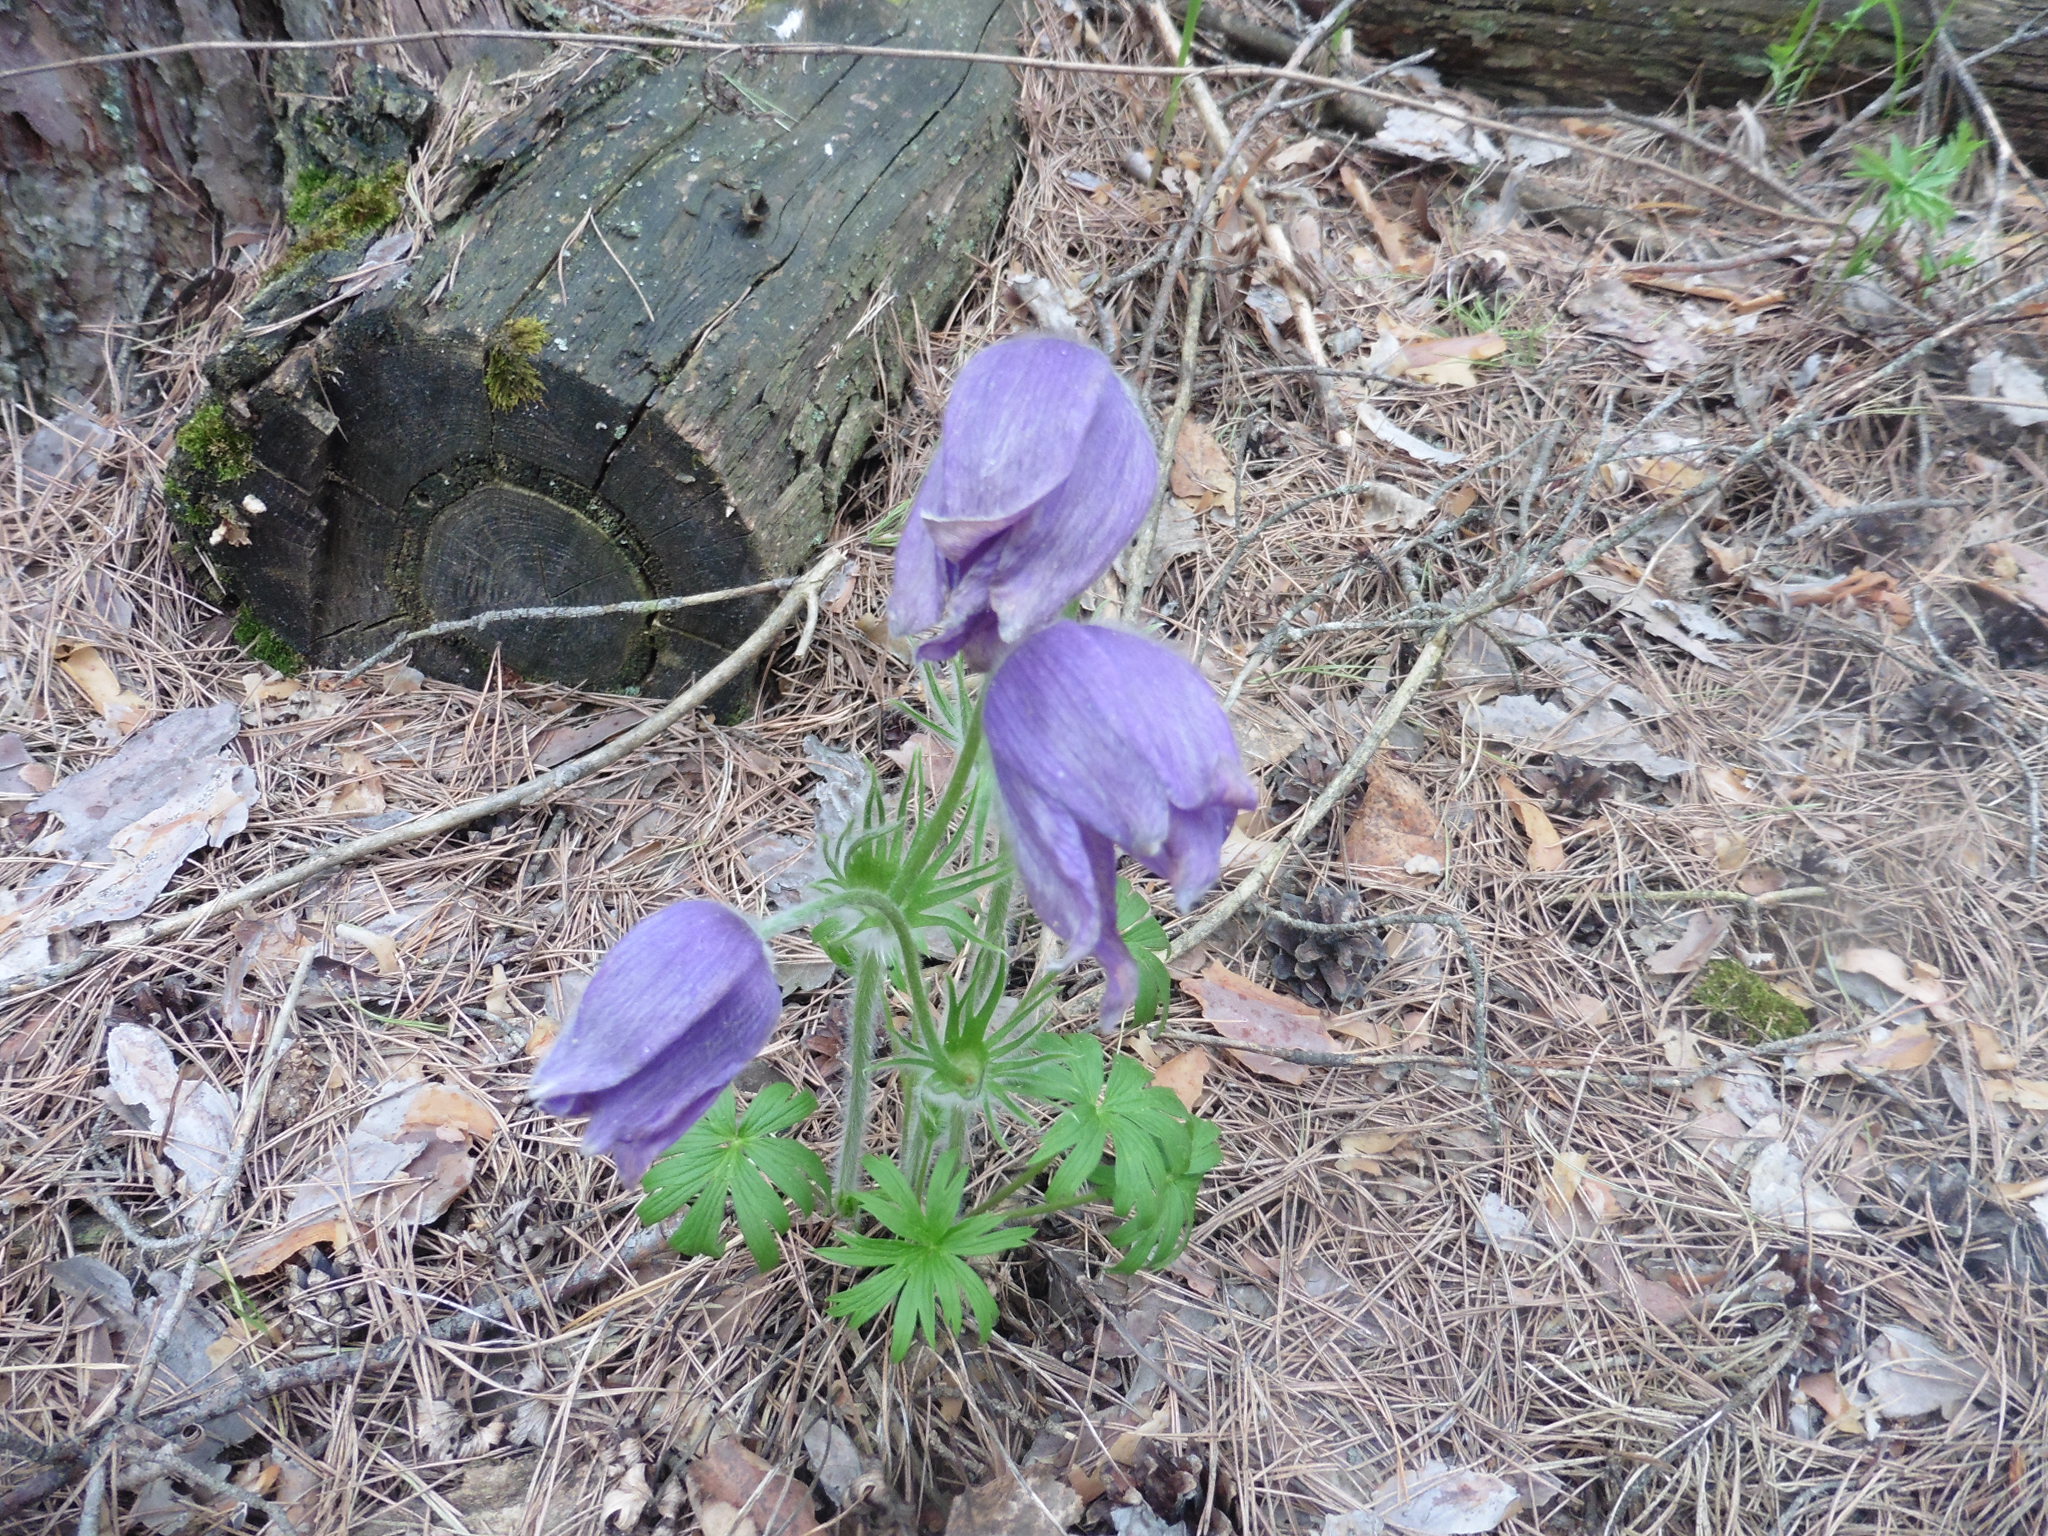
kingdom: Plantae
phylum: Tracheophyta
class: Magnoliopsida
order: Ranunculales
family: Ranunculaceae
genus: Pulsatilla
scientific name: Pulsatilla patens
